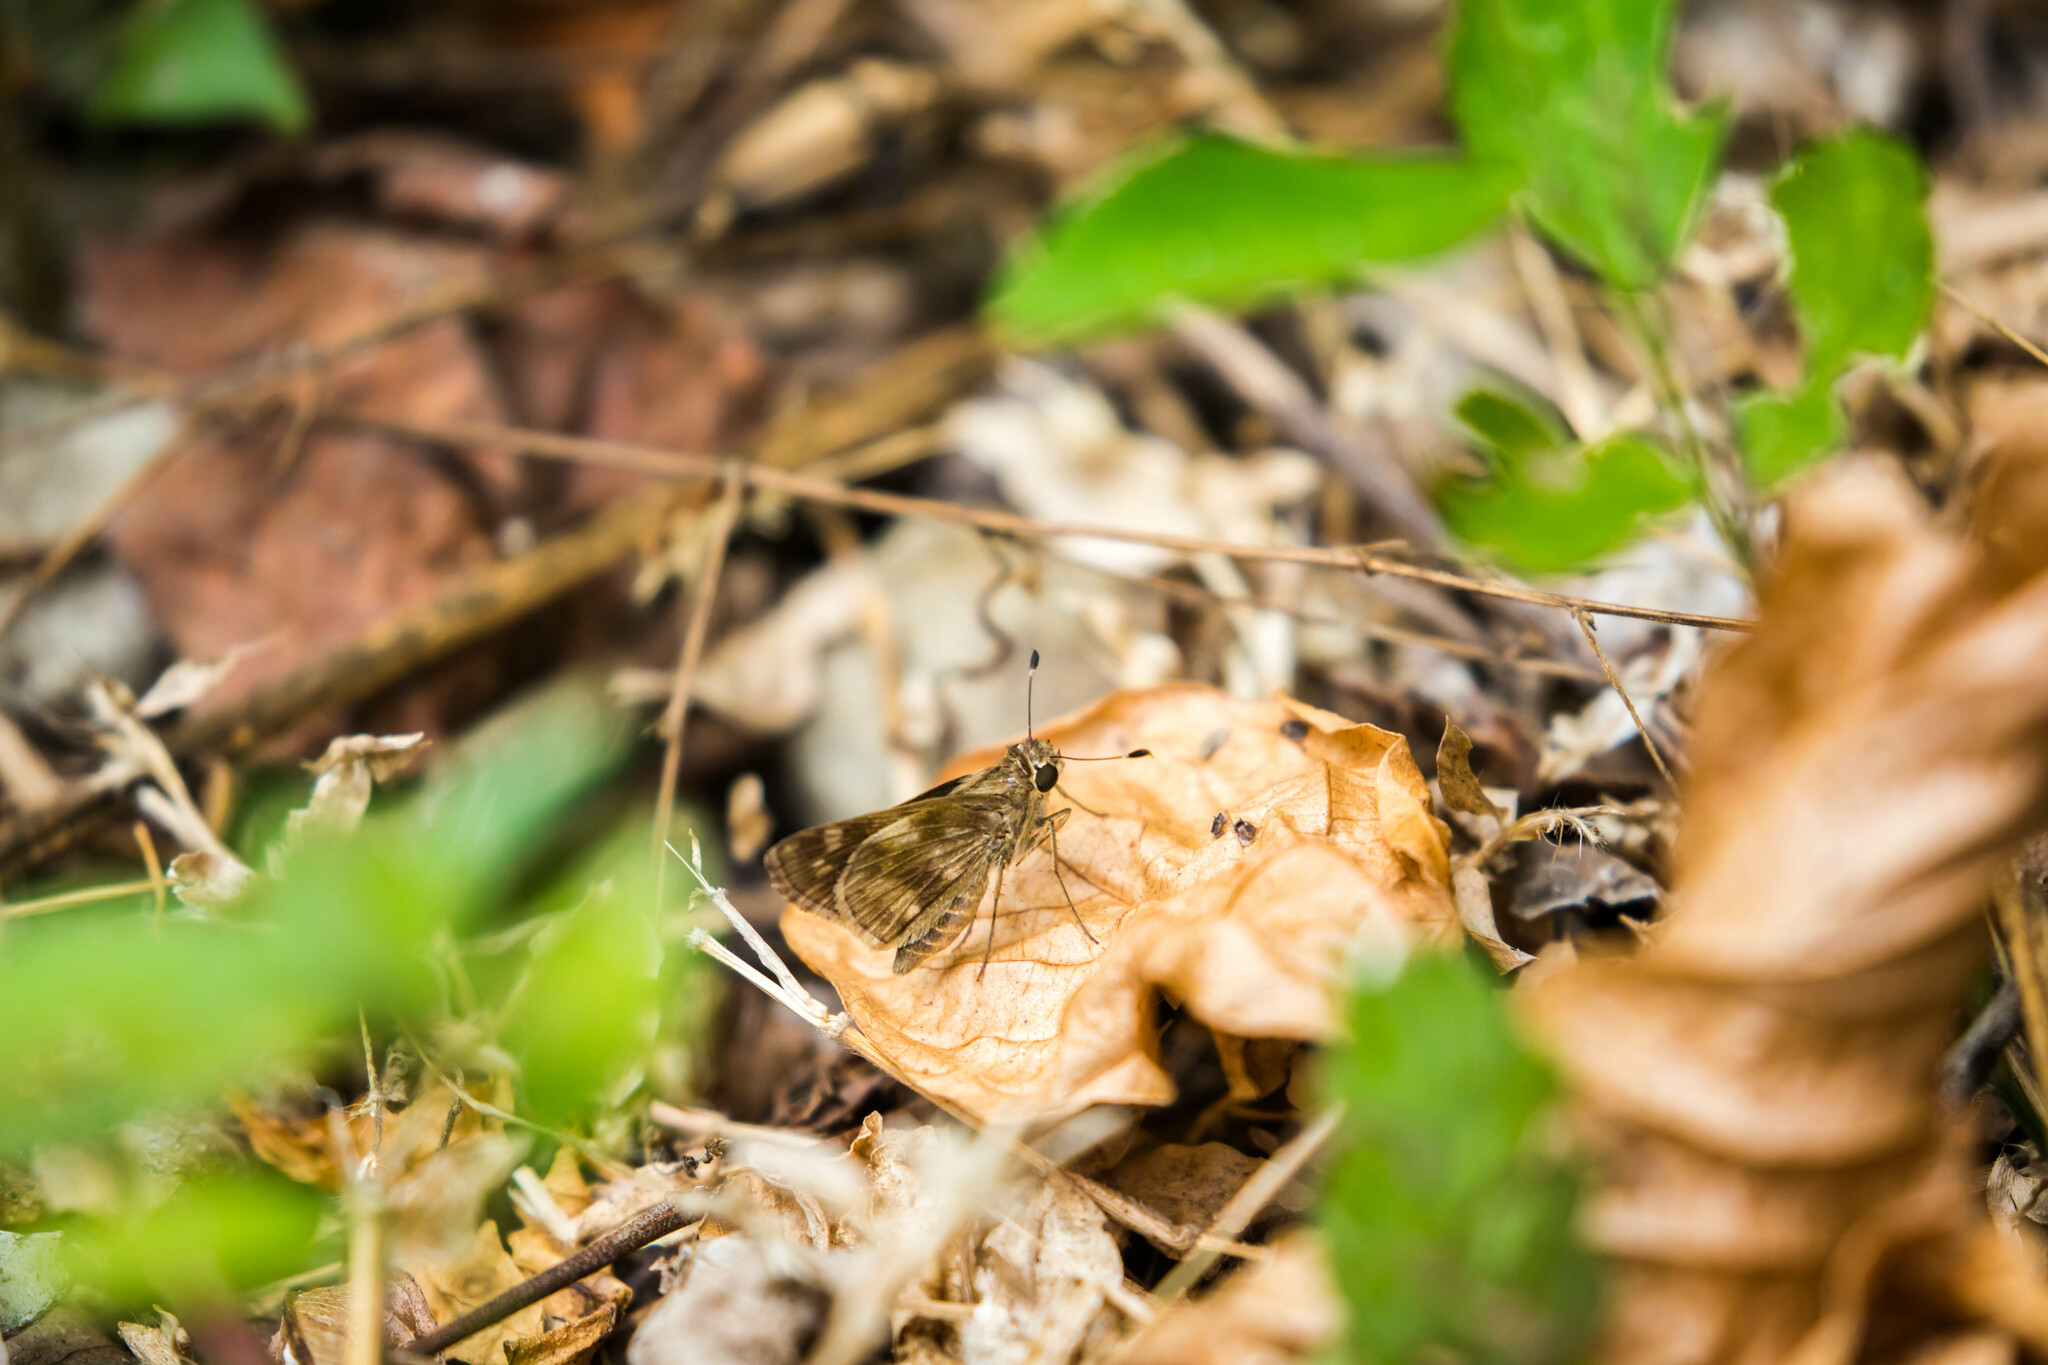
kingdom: Animalia
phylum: Arthropoda
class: Insecta
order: Lepidoptera
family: Hesperiidae
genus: Pompeius
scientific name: Pompeius pompeius
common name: Pompeius skipper
